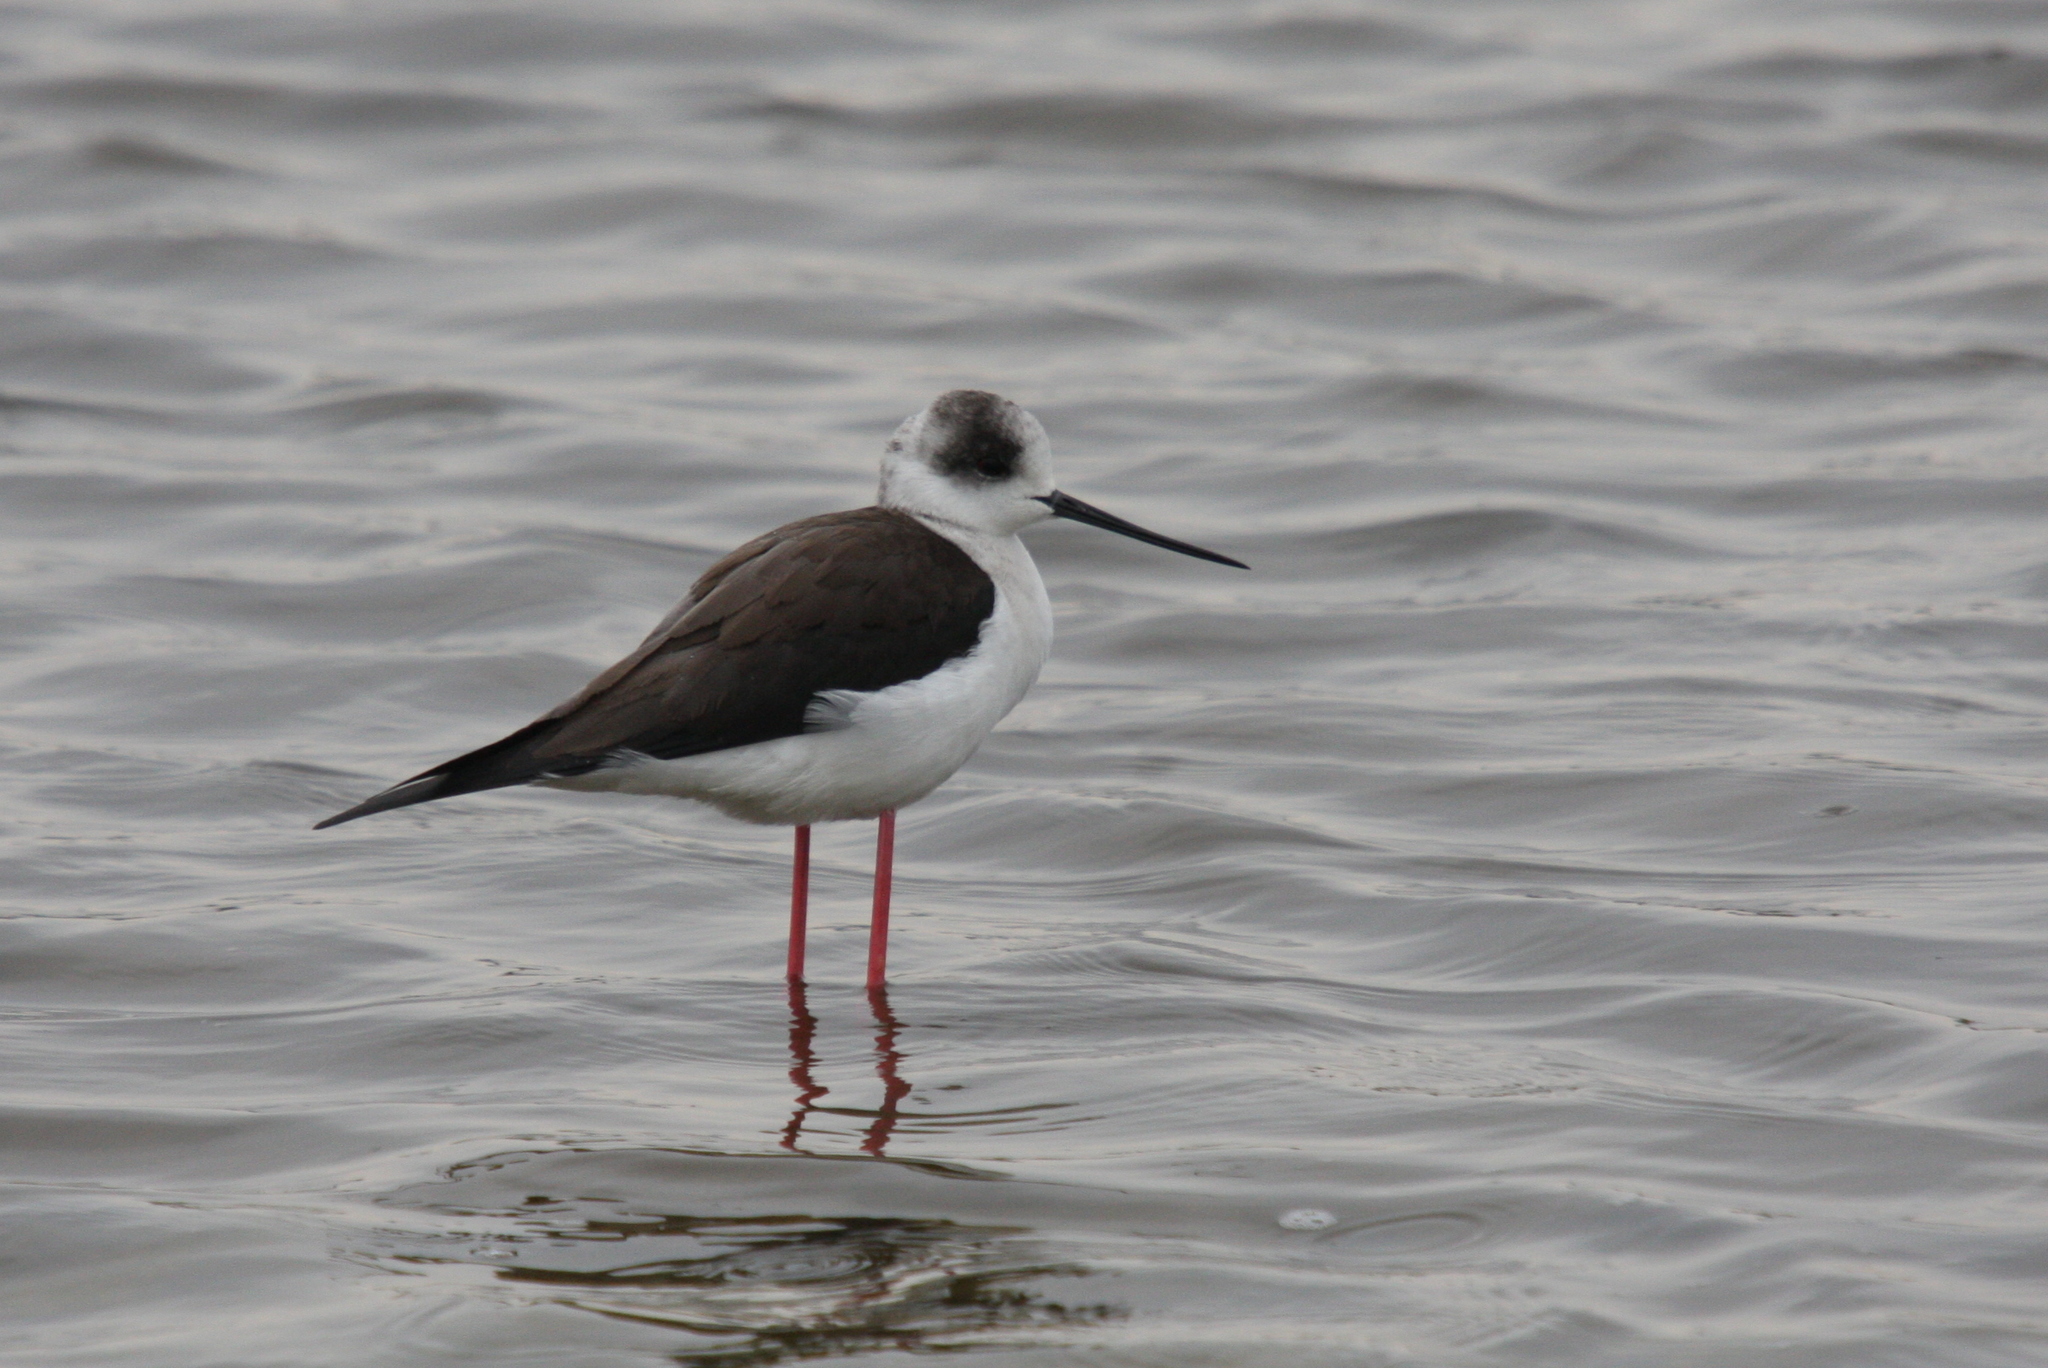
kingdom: Animalia
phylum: Chordata
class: Aves
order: Charadriiformes
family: Recurvirostridae
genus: Himantopus
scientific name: Himantopus himantopus
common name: Black-winged stilt
